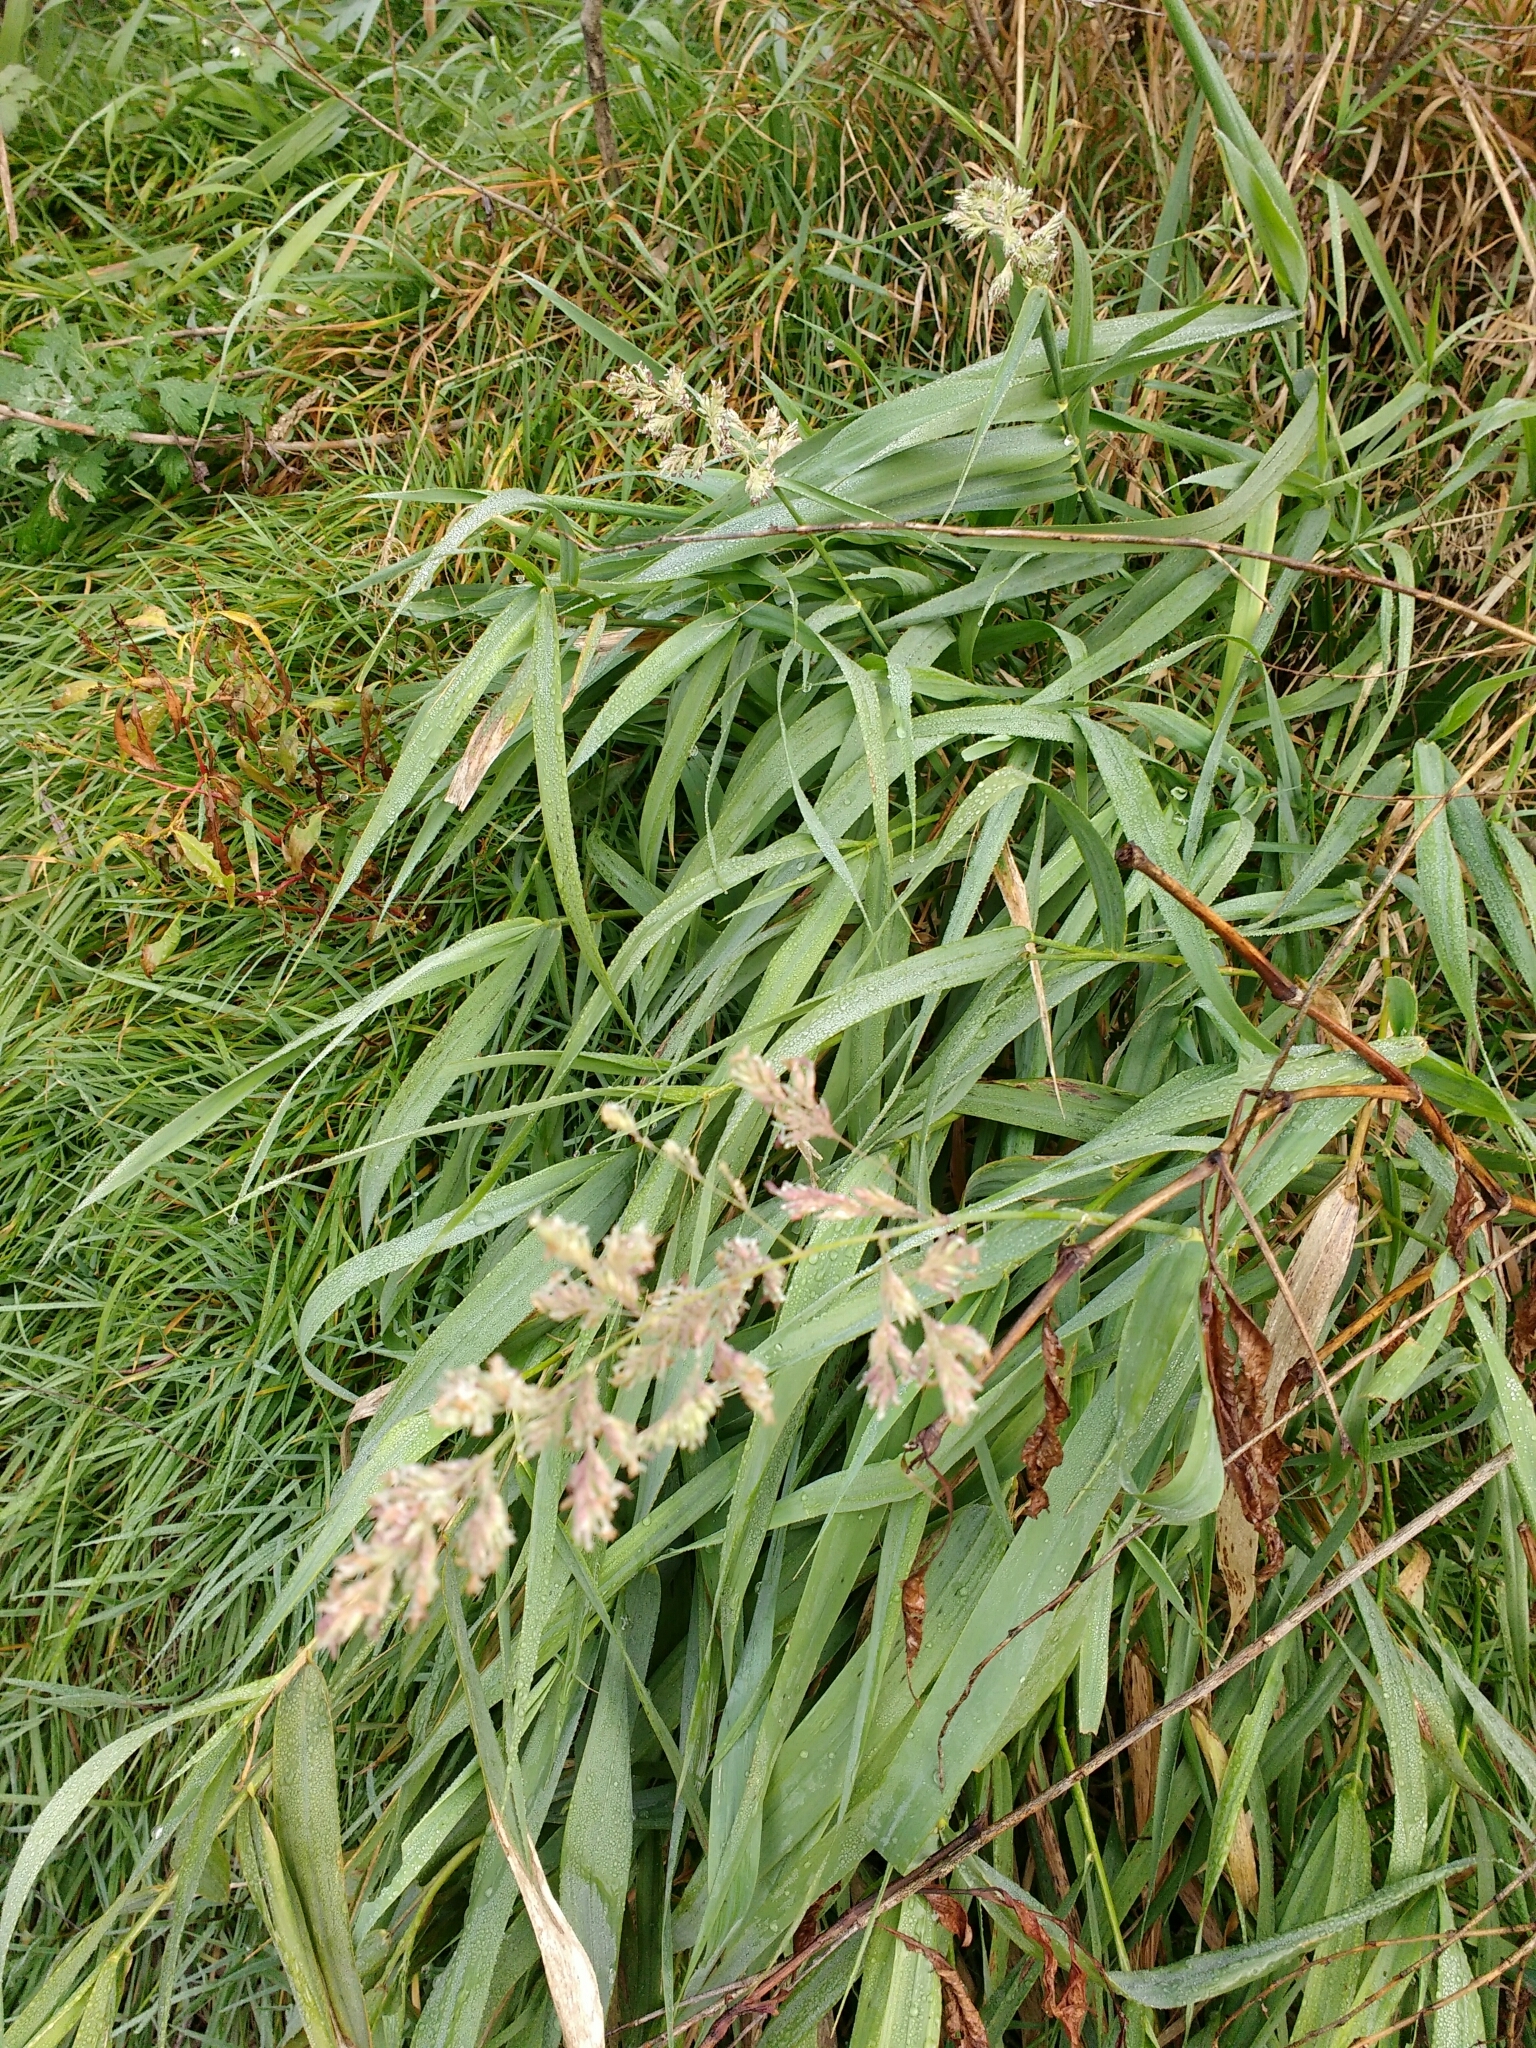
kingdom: Plantae
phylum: Tracheophyta
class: Liliopsida
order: Poales
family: Poaceae
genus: Phalaris
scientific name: Phalaris arundinacea
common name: Reed canary-grass
